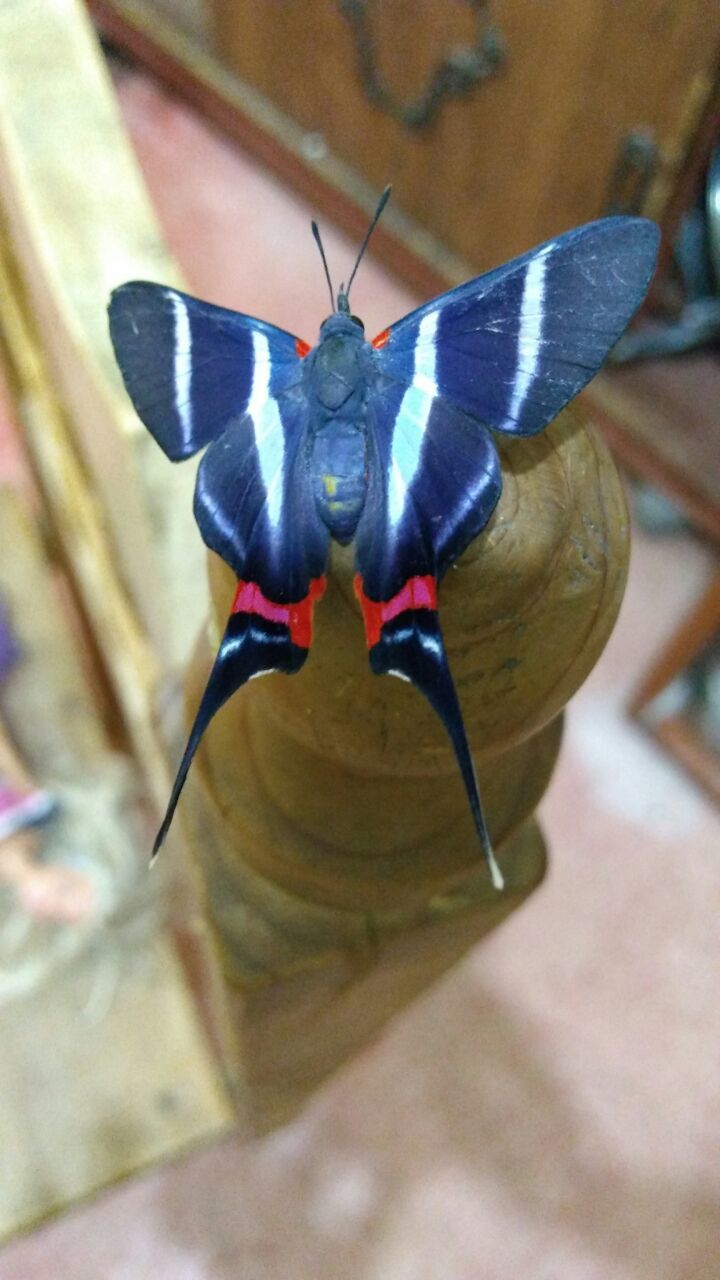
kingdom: Animalia
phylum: Arthropoda
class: Insecta
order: Lepidoptera
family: Riodinidae
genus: Rhetus
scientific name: Rhetus arcius
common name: Long-tailed metalmark
